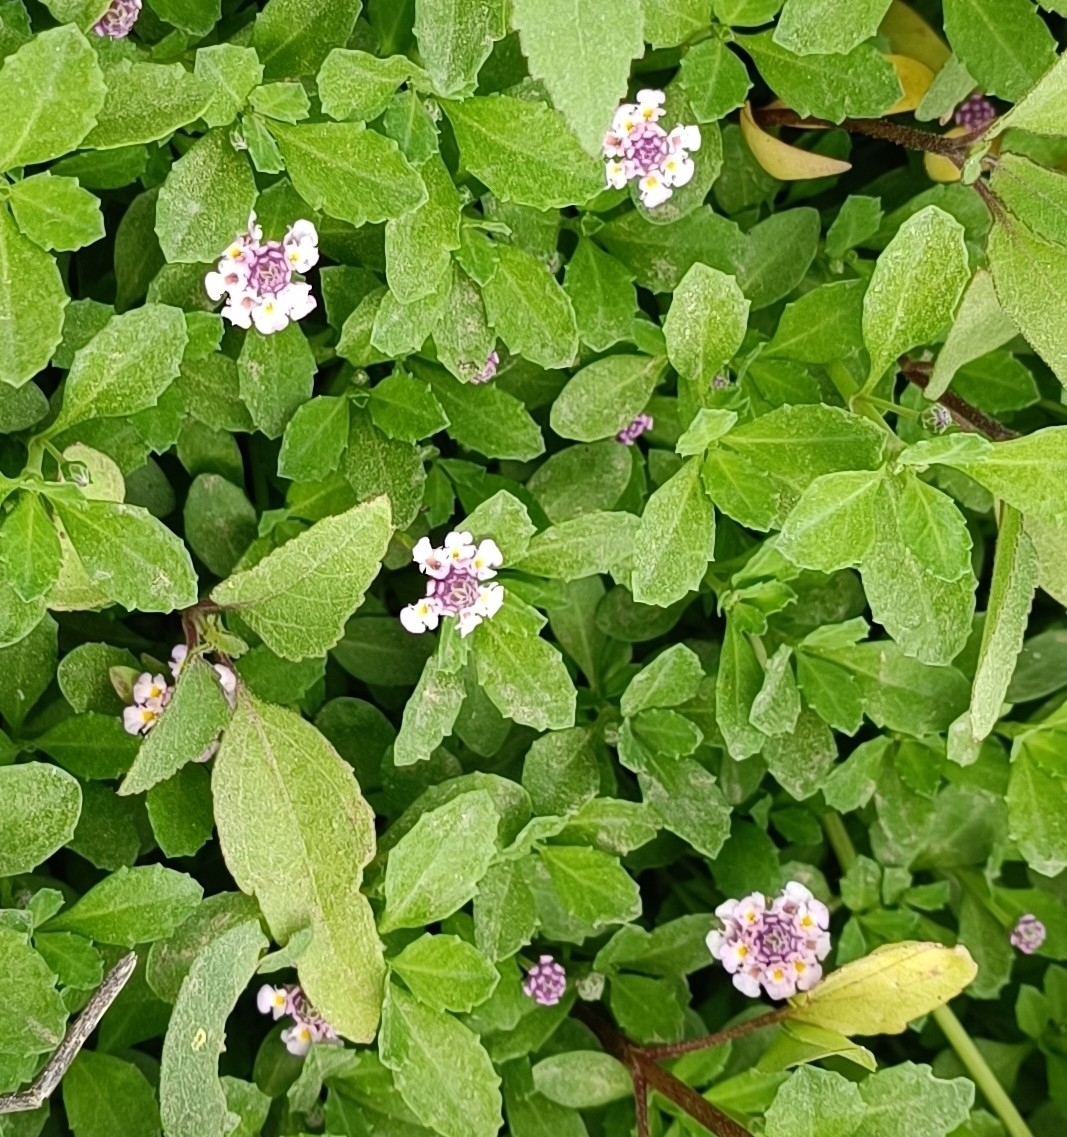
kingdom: Plantae
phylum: Tracheophyta
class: Magnoliopsida
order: Lamiales
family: Verbenaceae
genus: Phyla
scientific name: Phyla nodiflora
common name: Frogfruit
